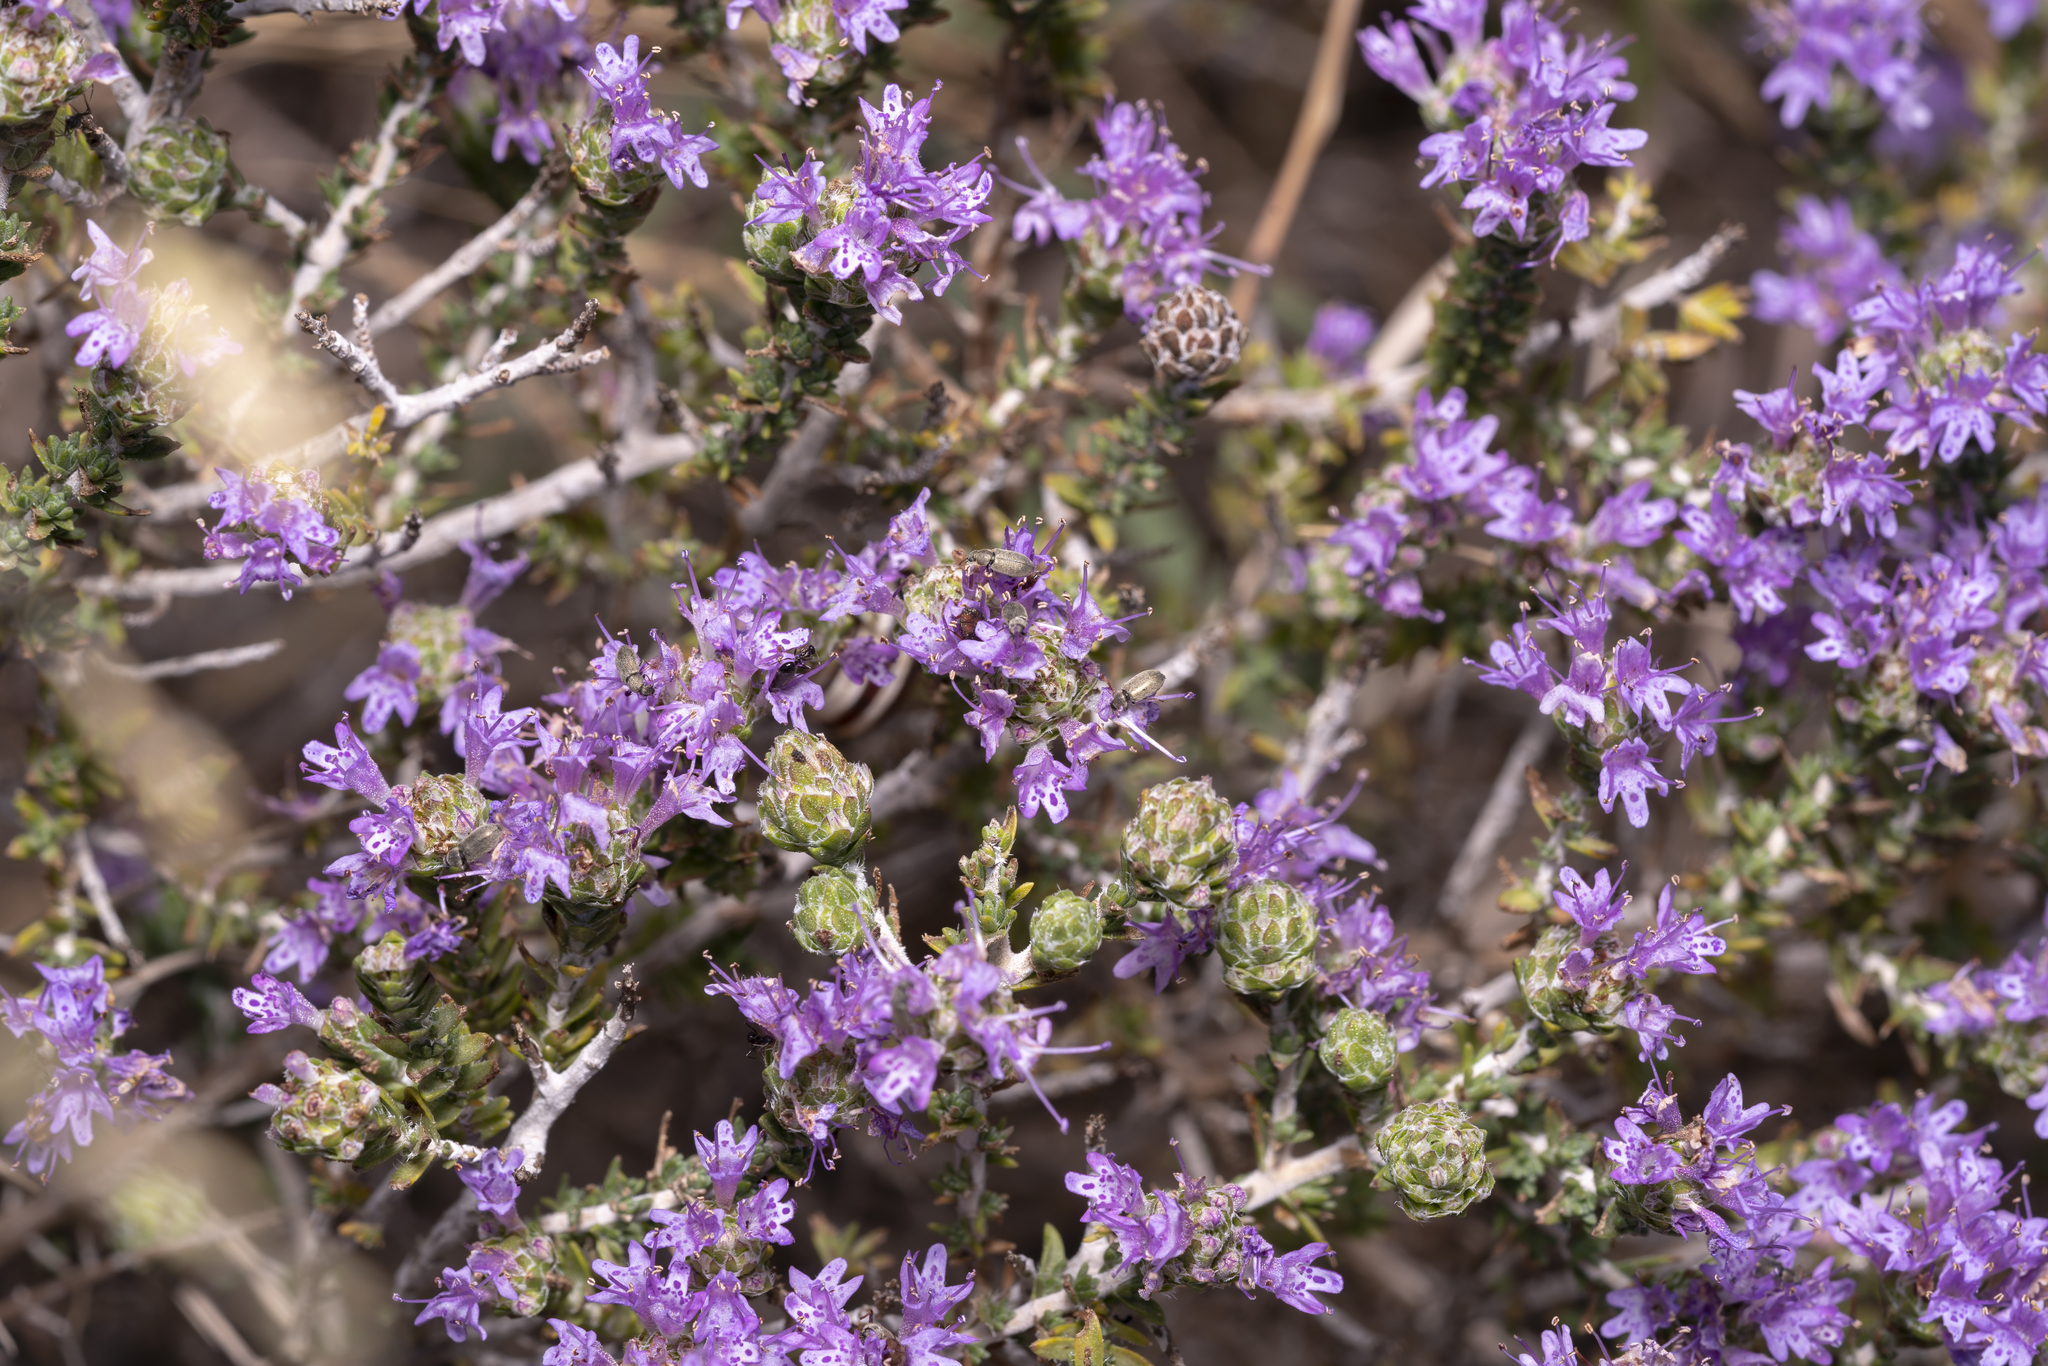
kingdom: Plantae
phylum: Tracheophyta
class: Magnoliopsida
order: Lamiales
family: Lamiaceae
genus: Thymbra
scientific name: Thymbra capitata
